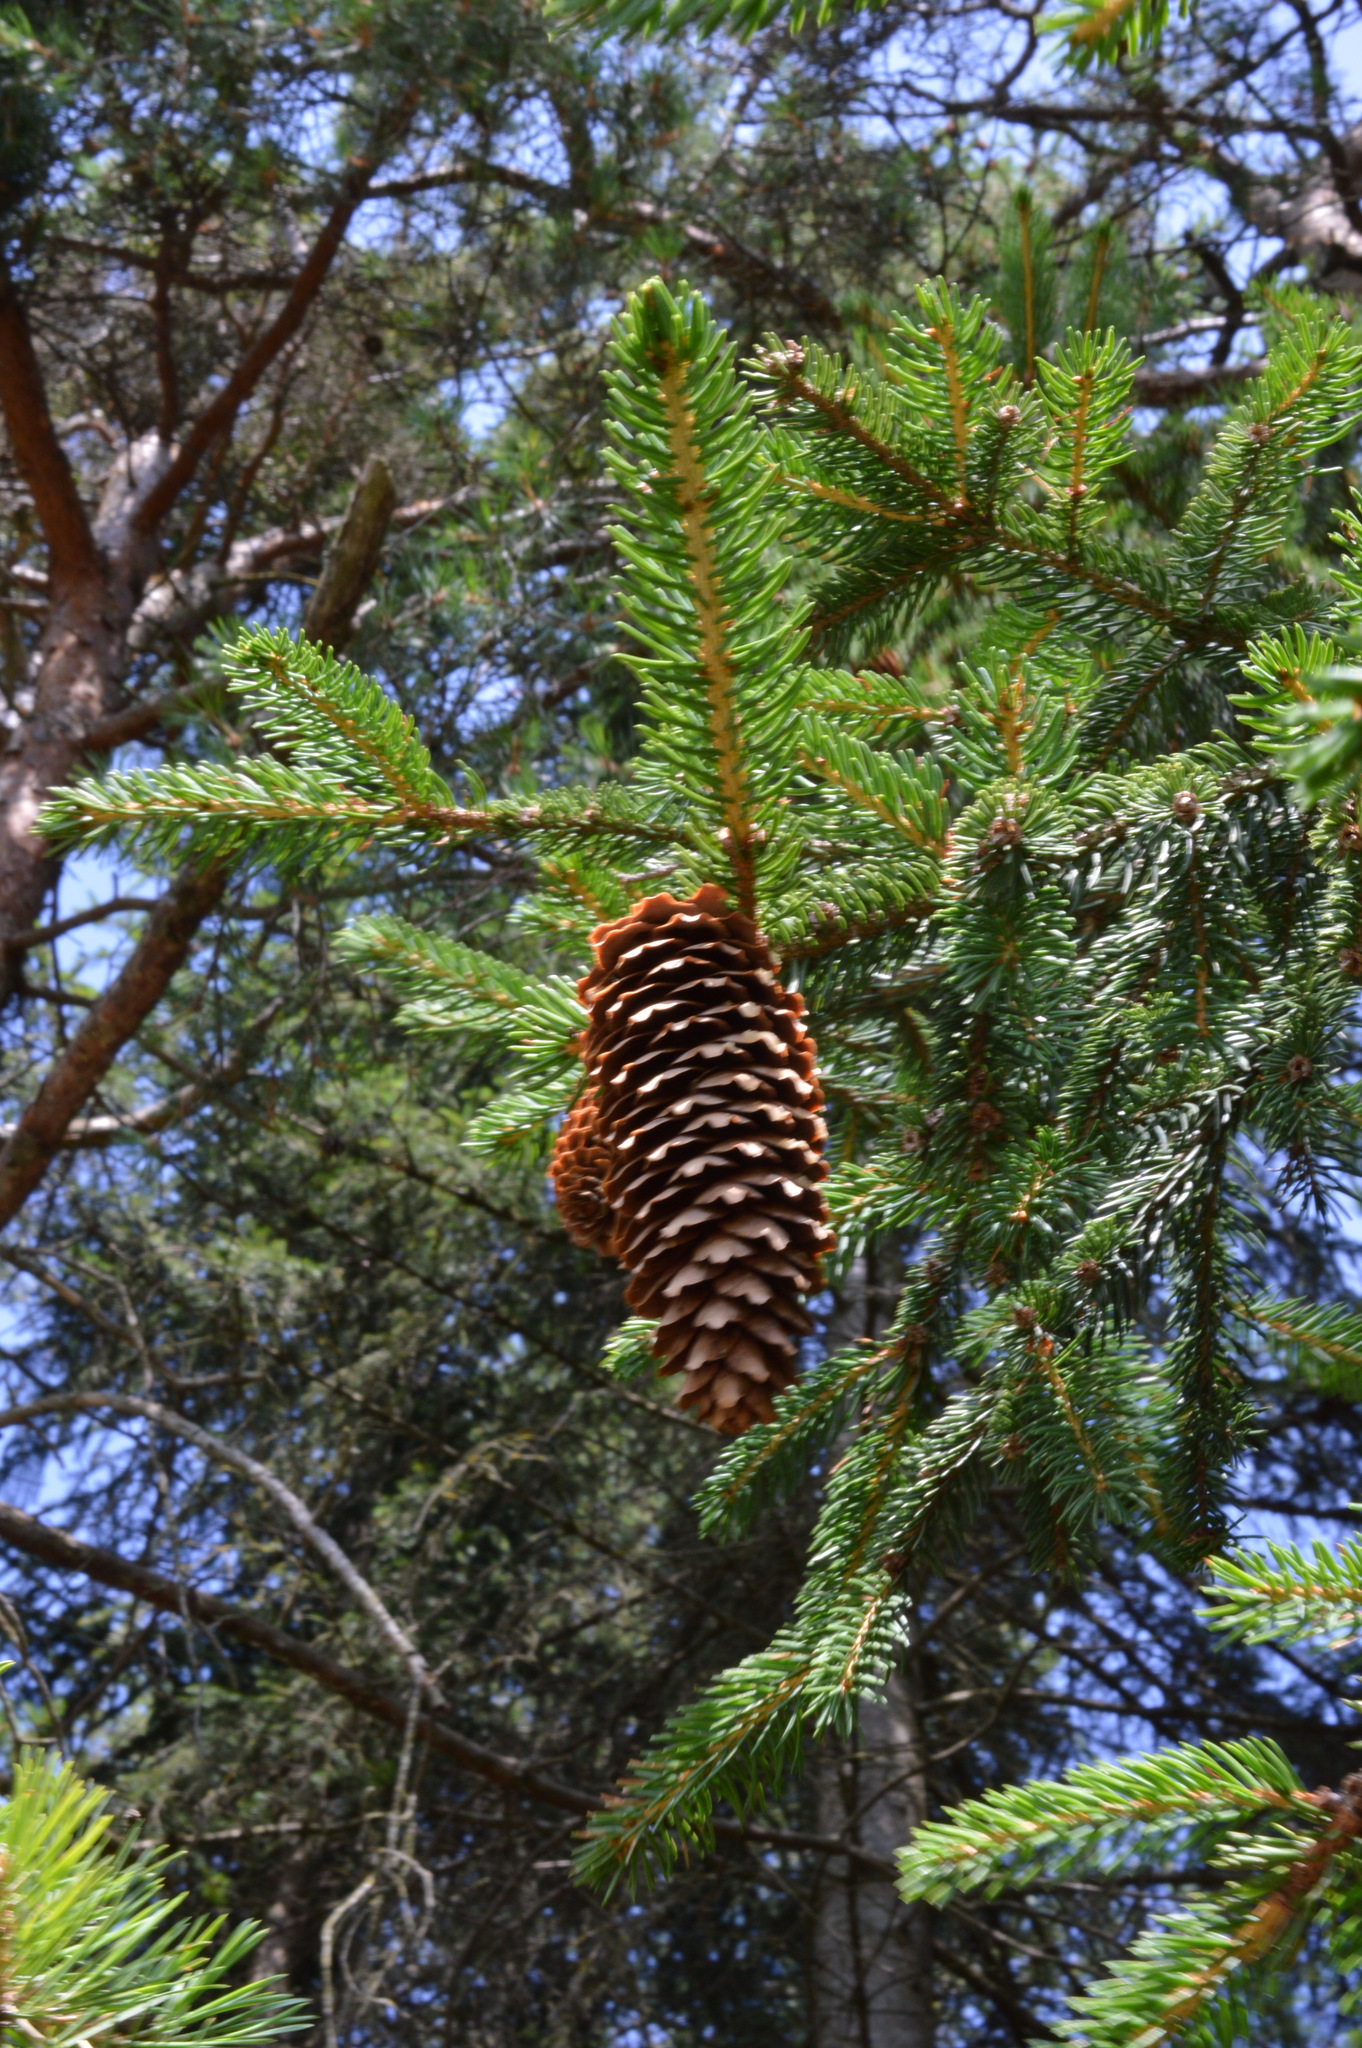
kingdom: Plantae
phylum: Tracheophyta
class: Pinopsida
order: Pinales
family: Pinaceae
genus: Picea
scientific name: Picea abies
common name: Norway spruce
